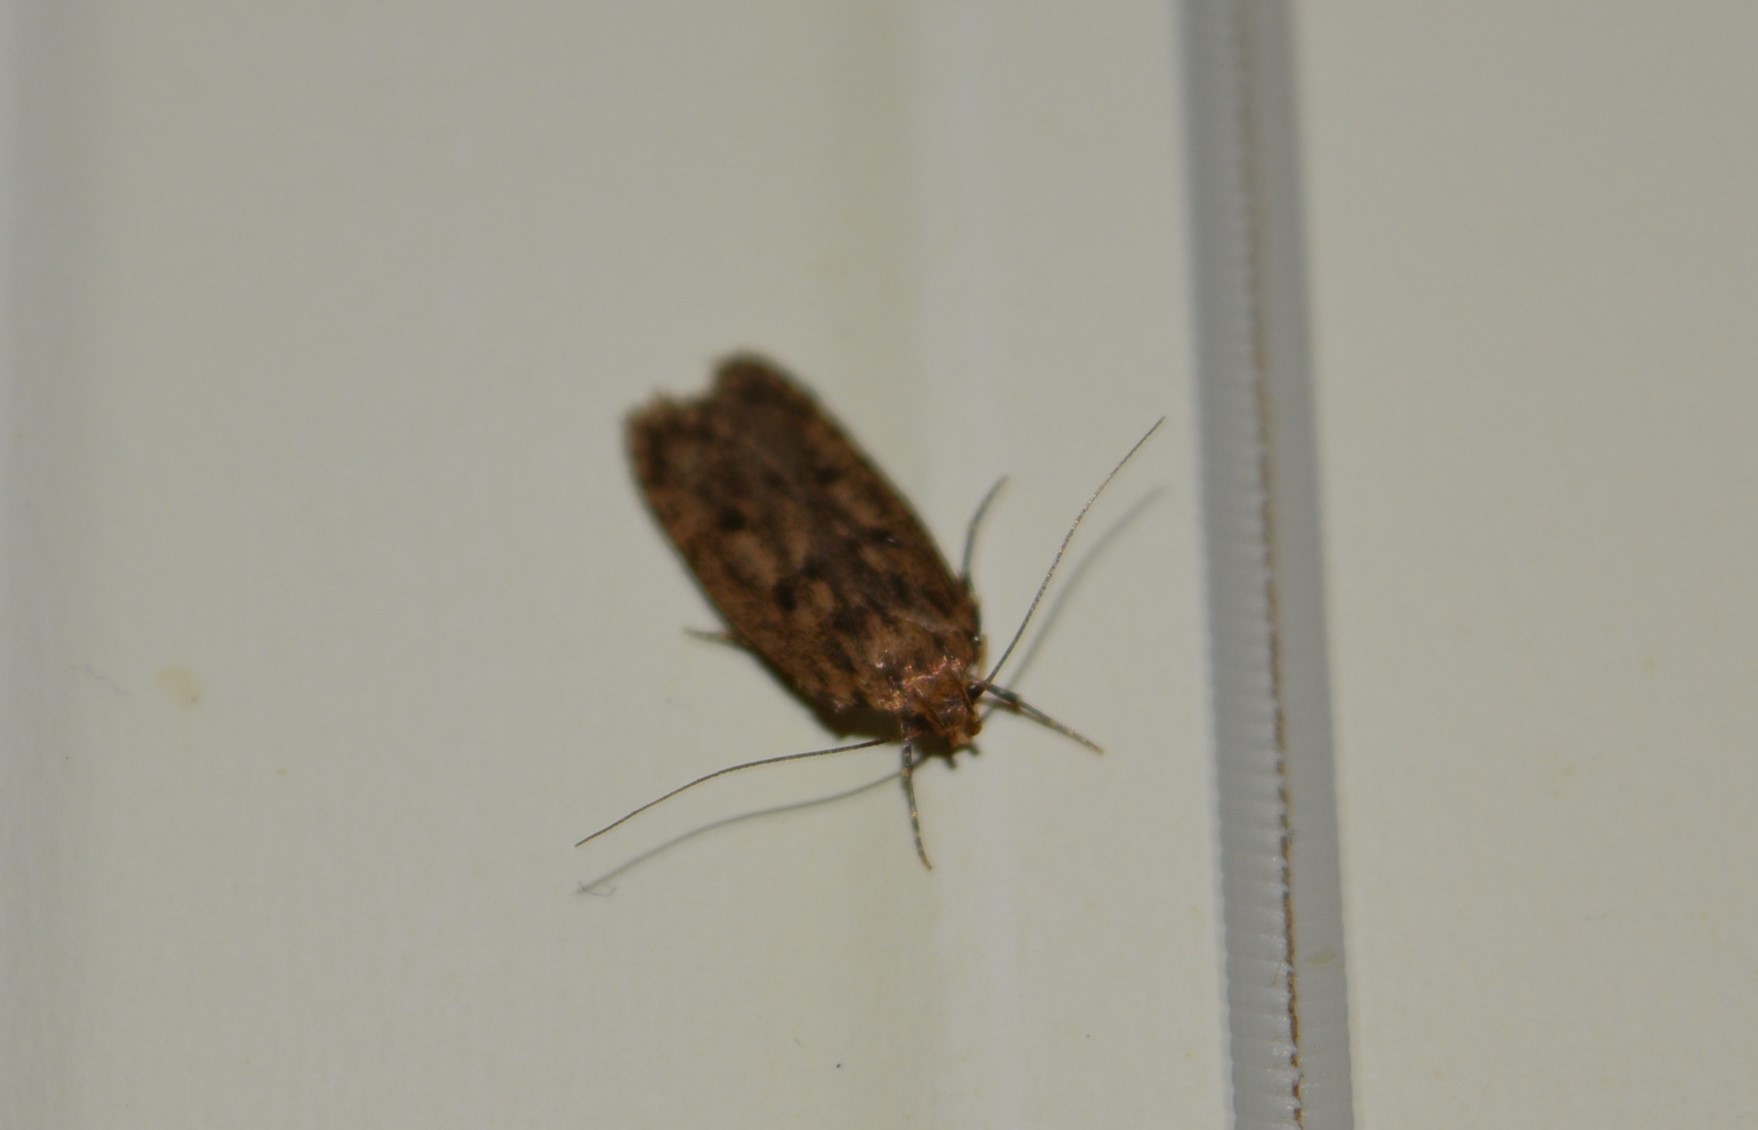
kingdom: Animalia
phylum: Arthropoda
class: Insecta
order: Lepidoptera
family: Oecophoridae
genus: Hofmannophila
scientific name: Hofmannophila pseudospretella
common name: Brown house moth
